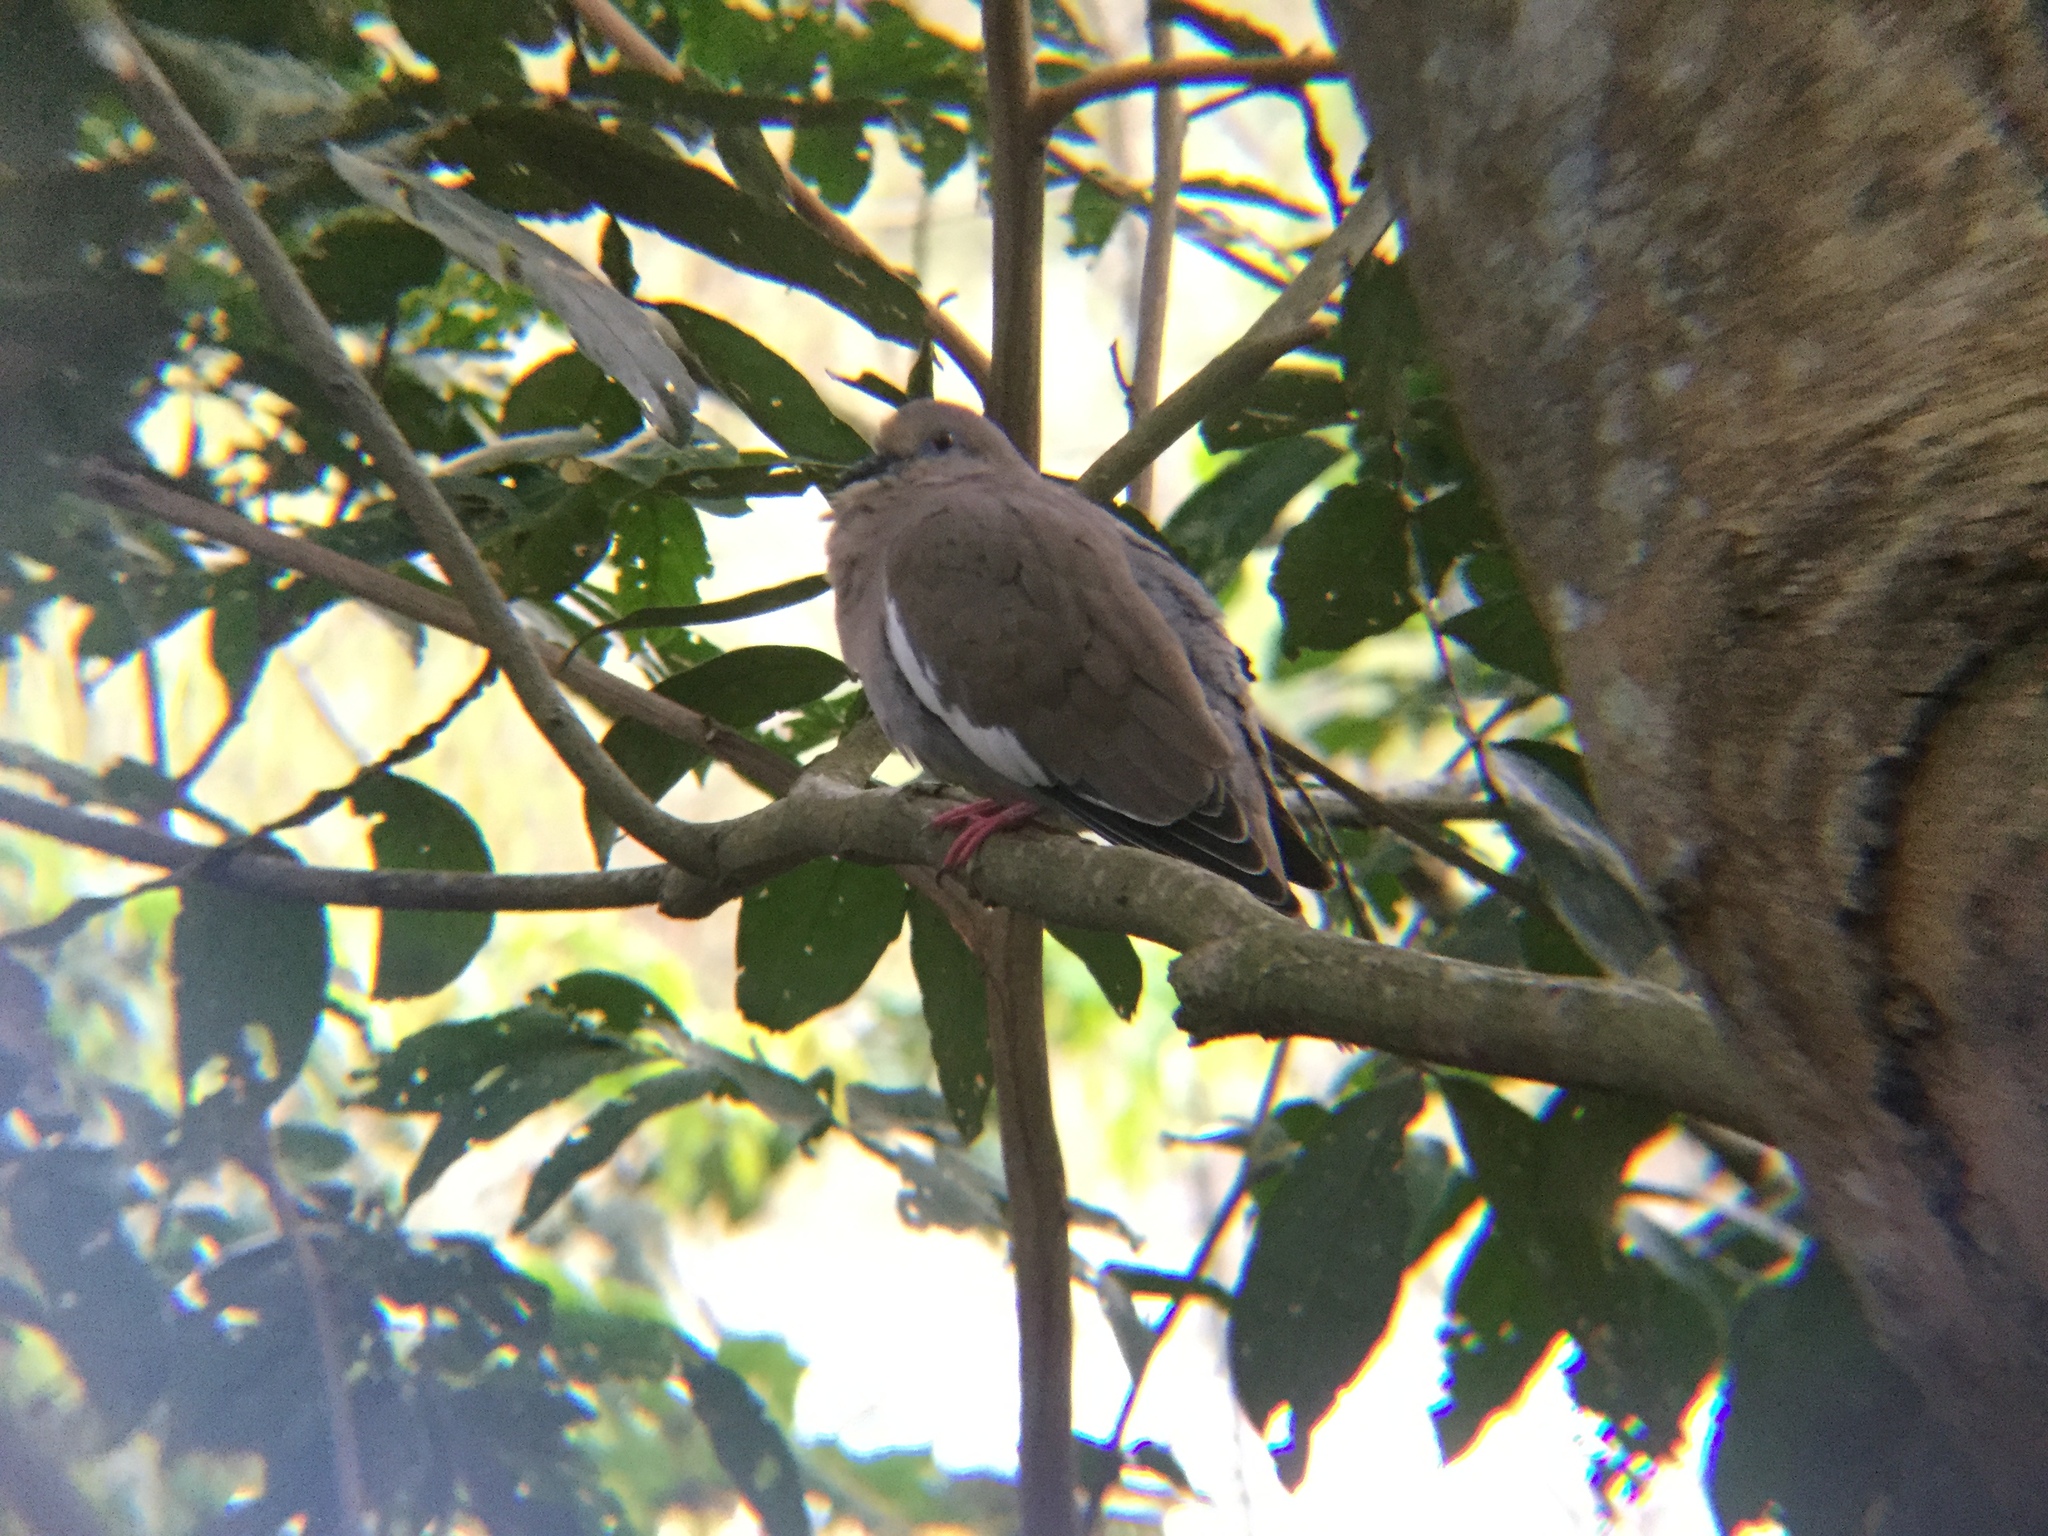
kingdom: Animalia
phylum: Chordata
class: Aves
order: Columbiformes
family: Columbidae
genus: Zenaida
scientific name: Zenaida asiatica
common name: White-winged dove
